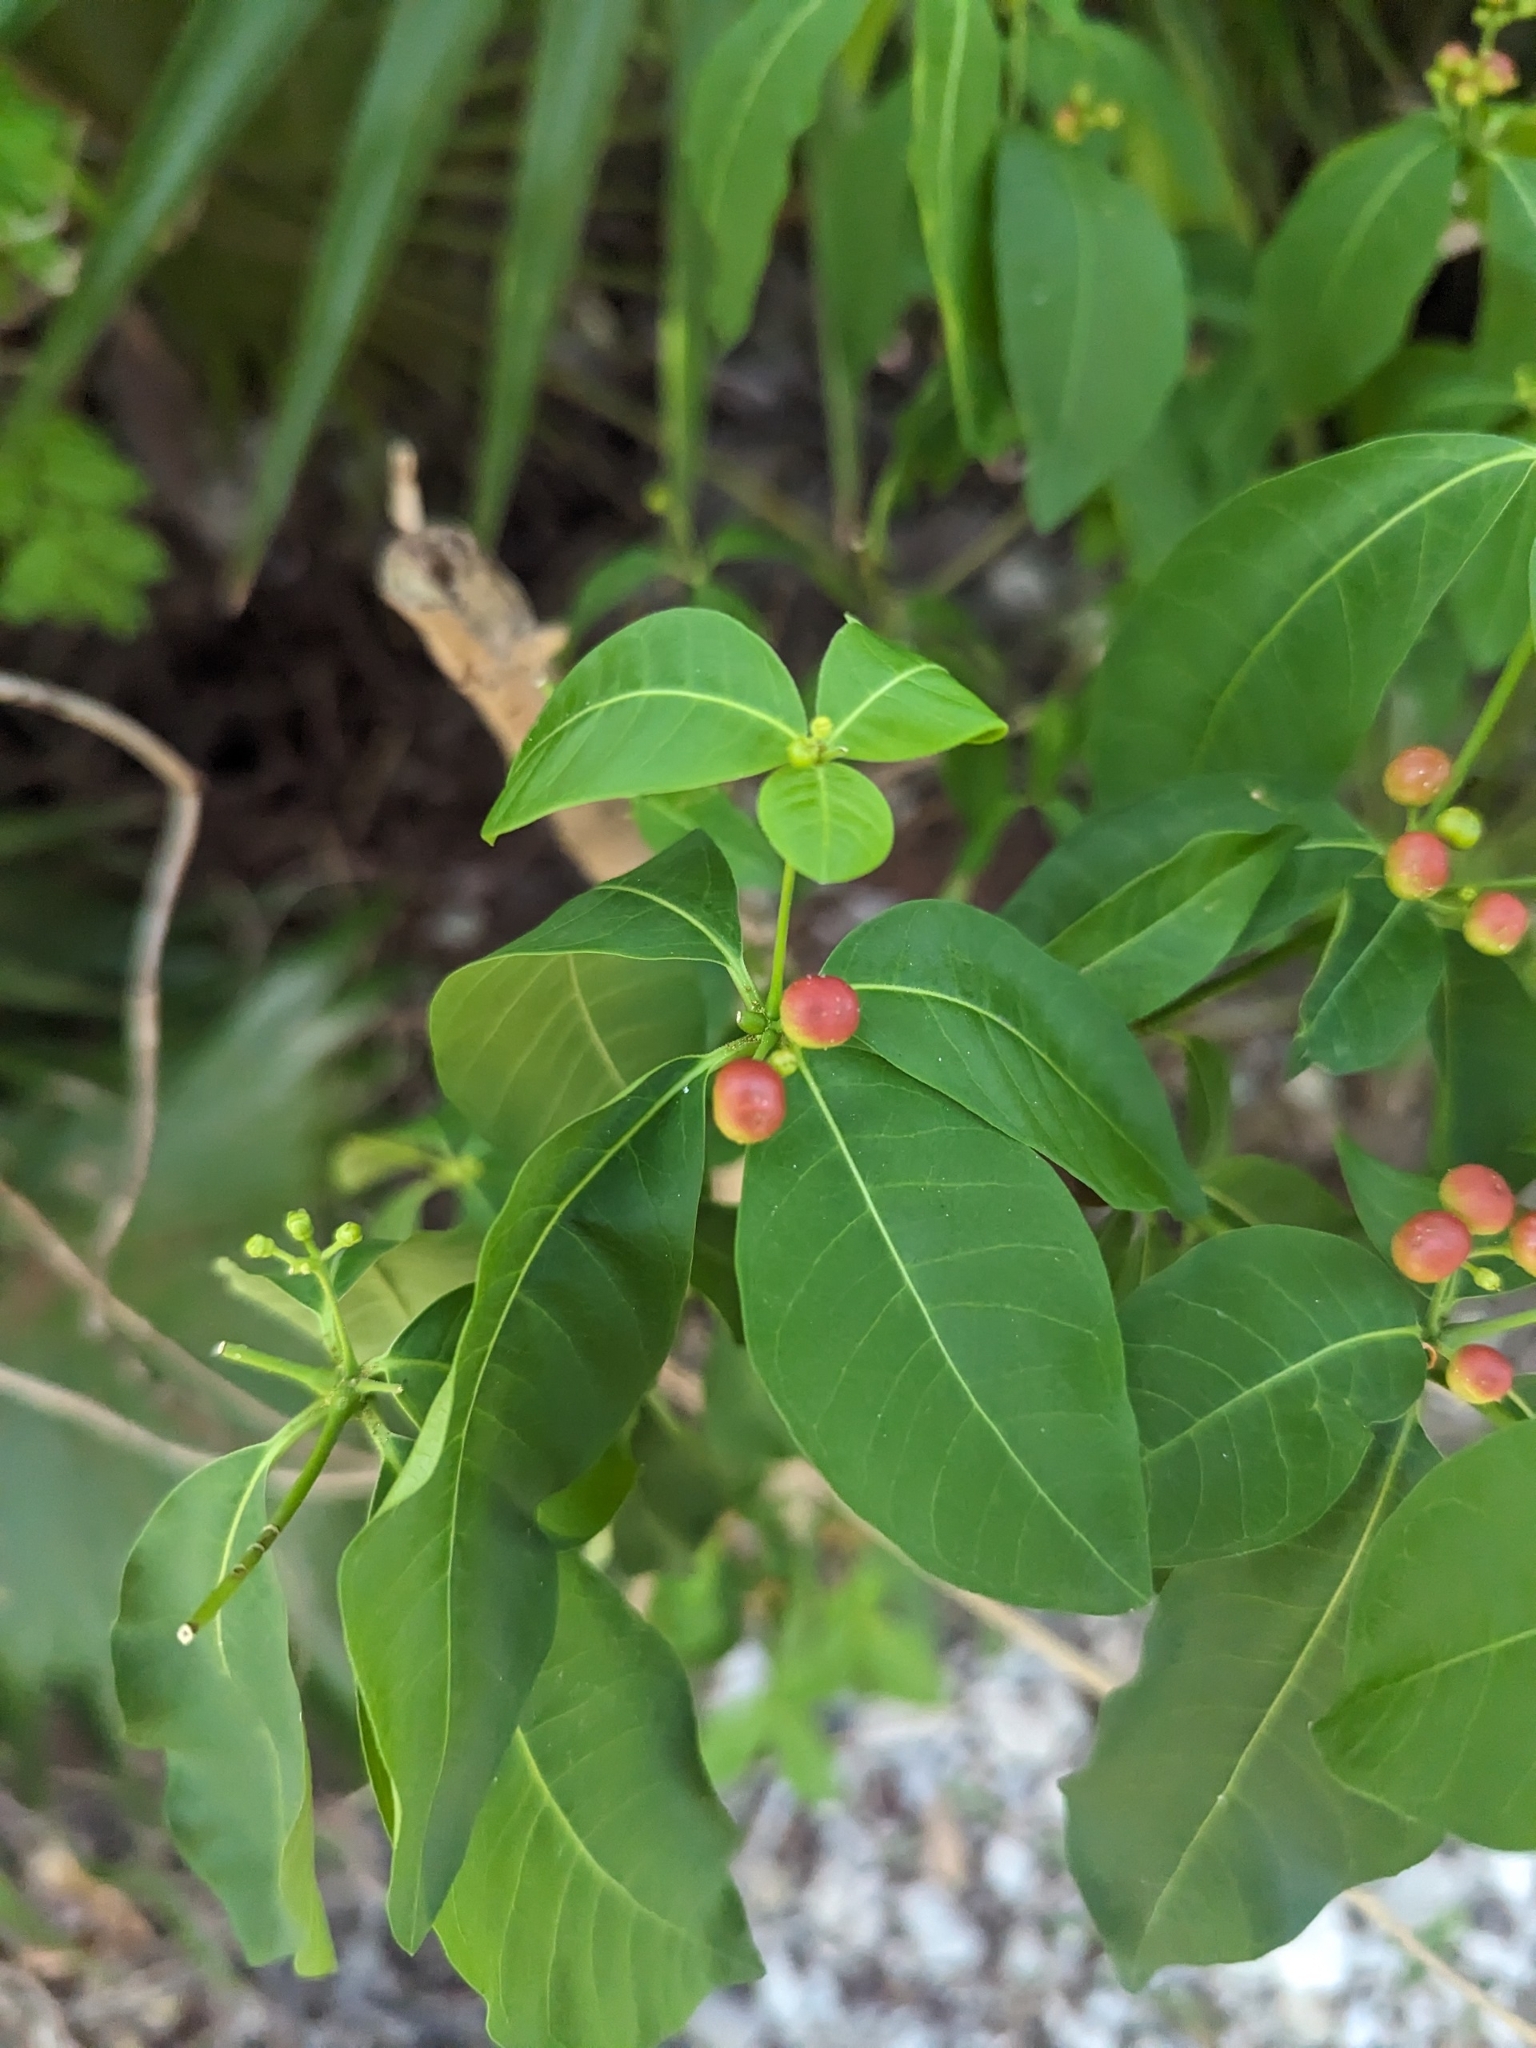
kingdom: Plantae
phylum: Tracheophyta
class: Magnoliopsida
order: Gentianales
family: Apocynaceae
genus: Rauvolfia
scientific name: Rauvolfia tetraphylla
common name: Four-leaf devil-pepper
